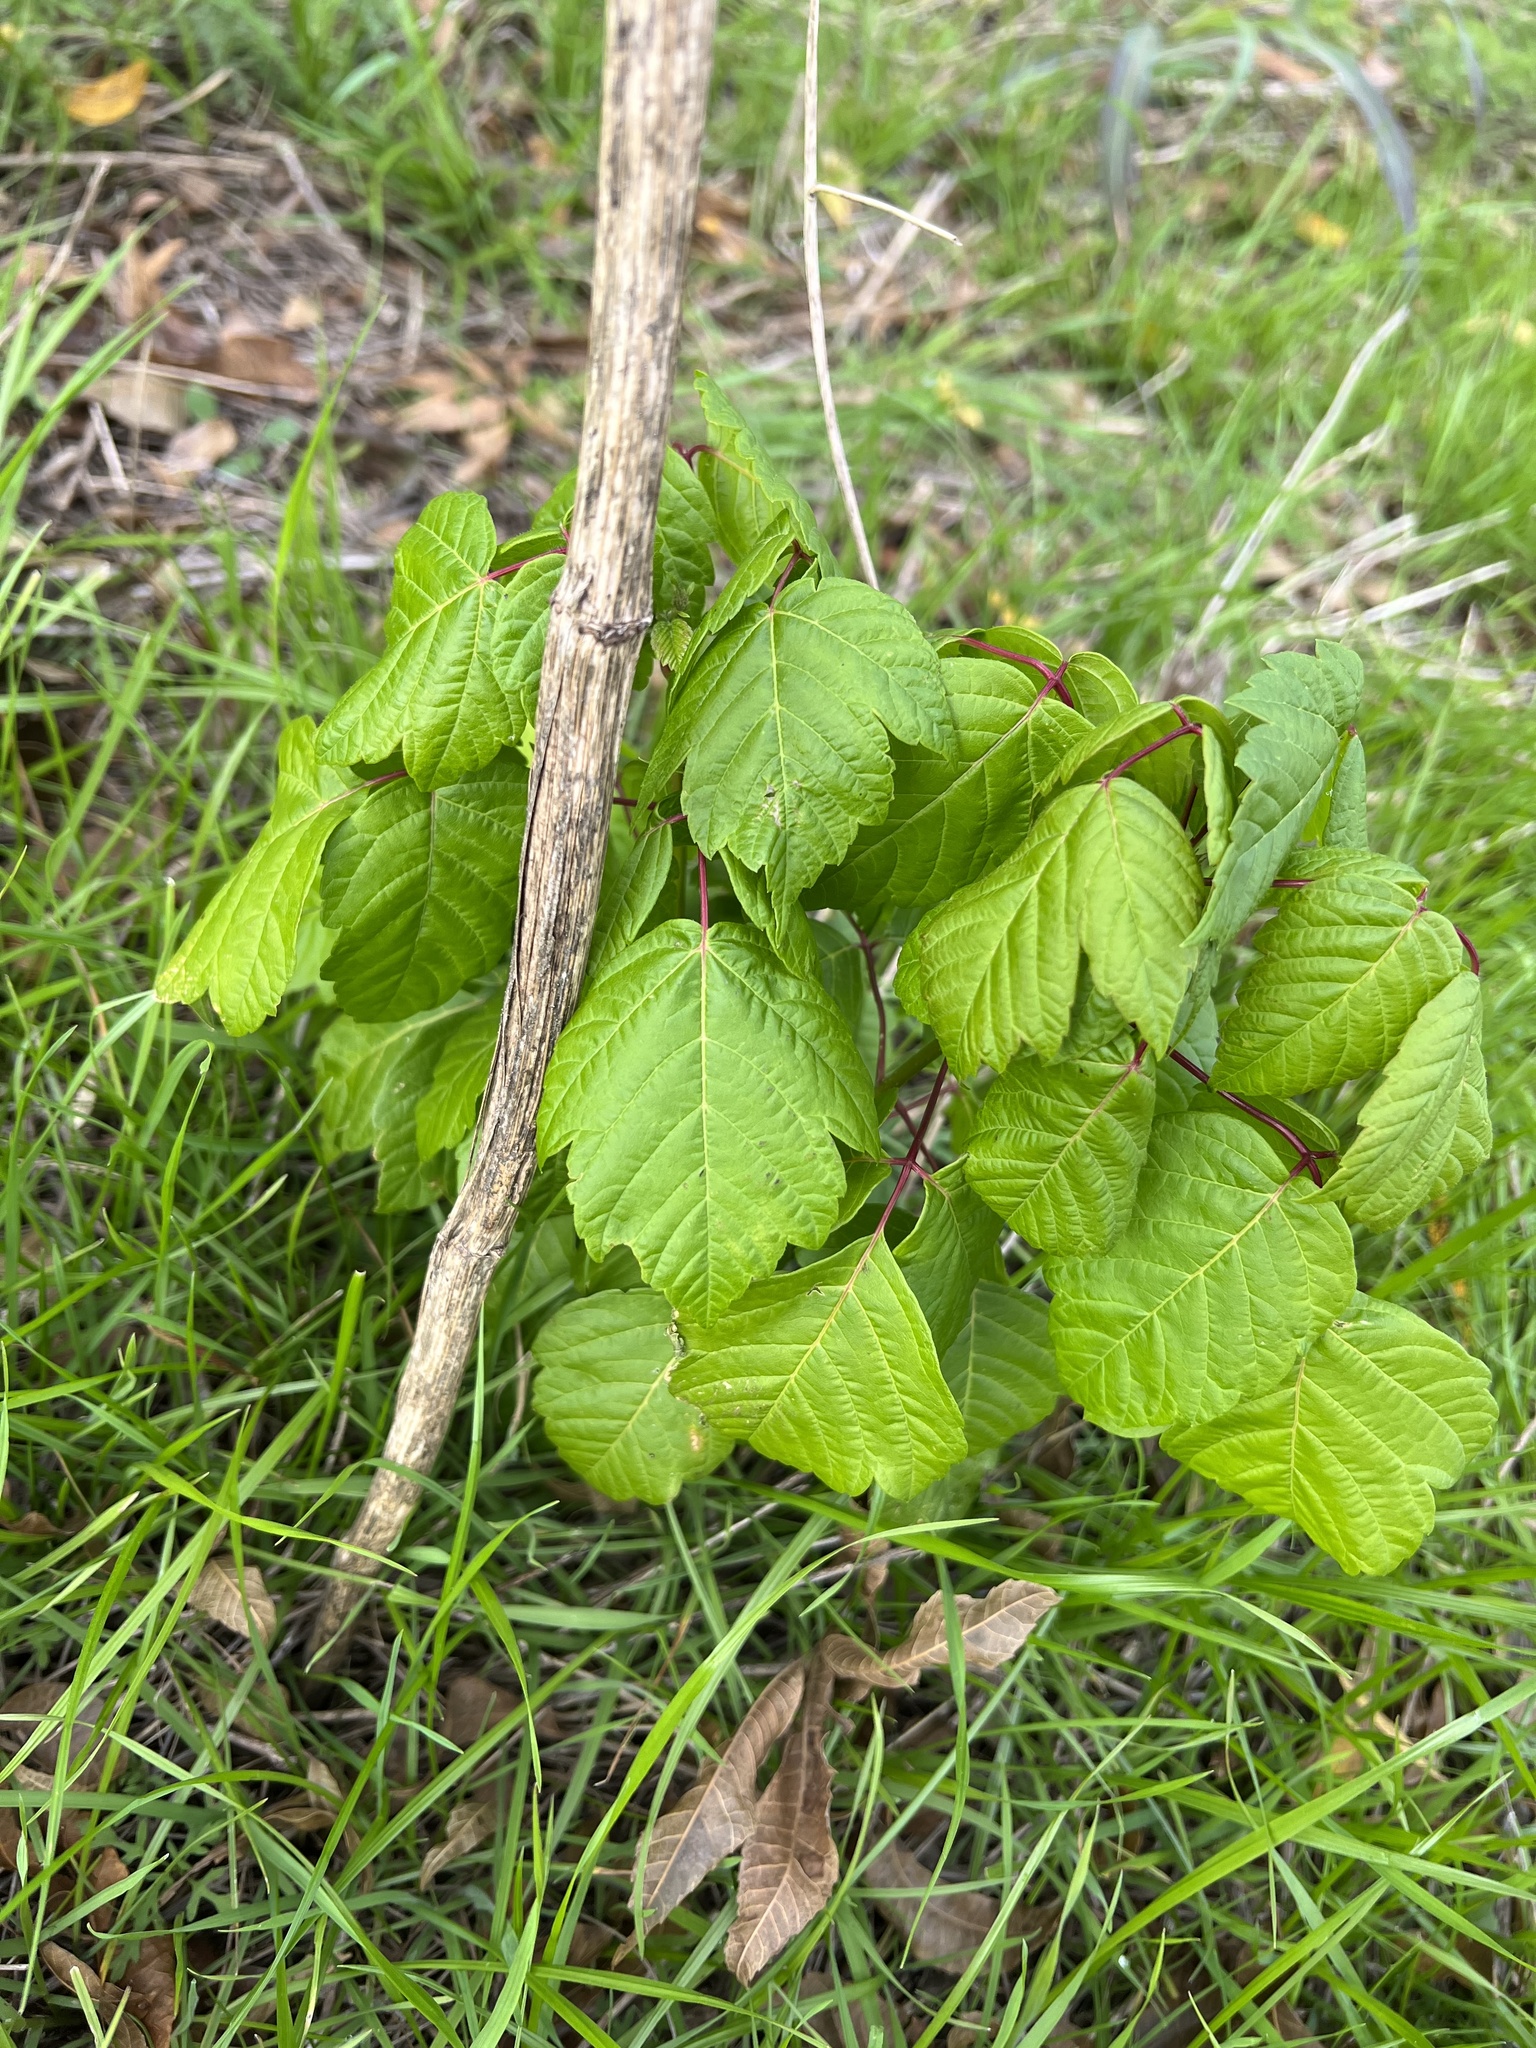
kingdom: Plantae
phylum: Tracheophyta
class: Magnoliopsida
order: Sapindales
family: Sapindaceae
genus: Acer
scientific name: Acer negundo
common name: Ashleaf maple
